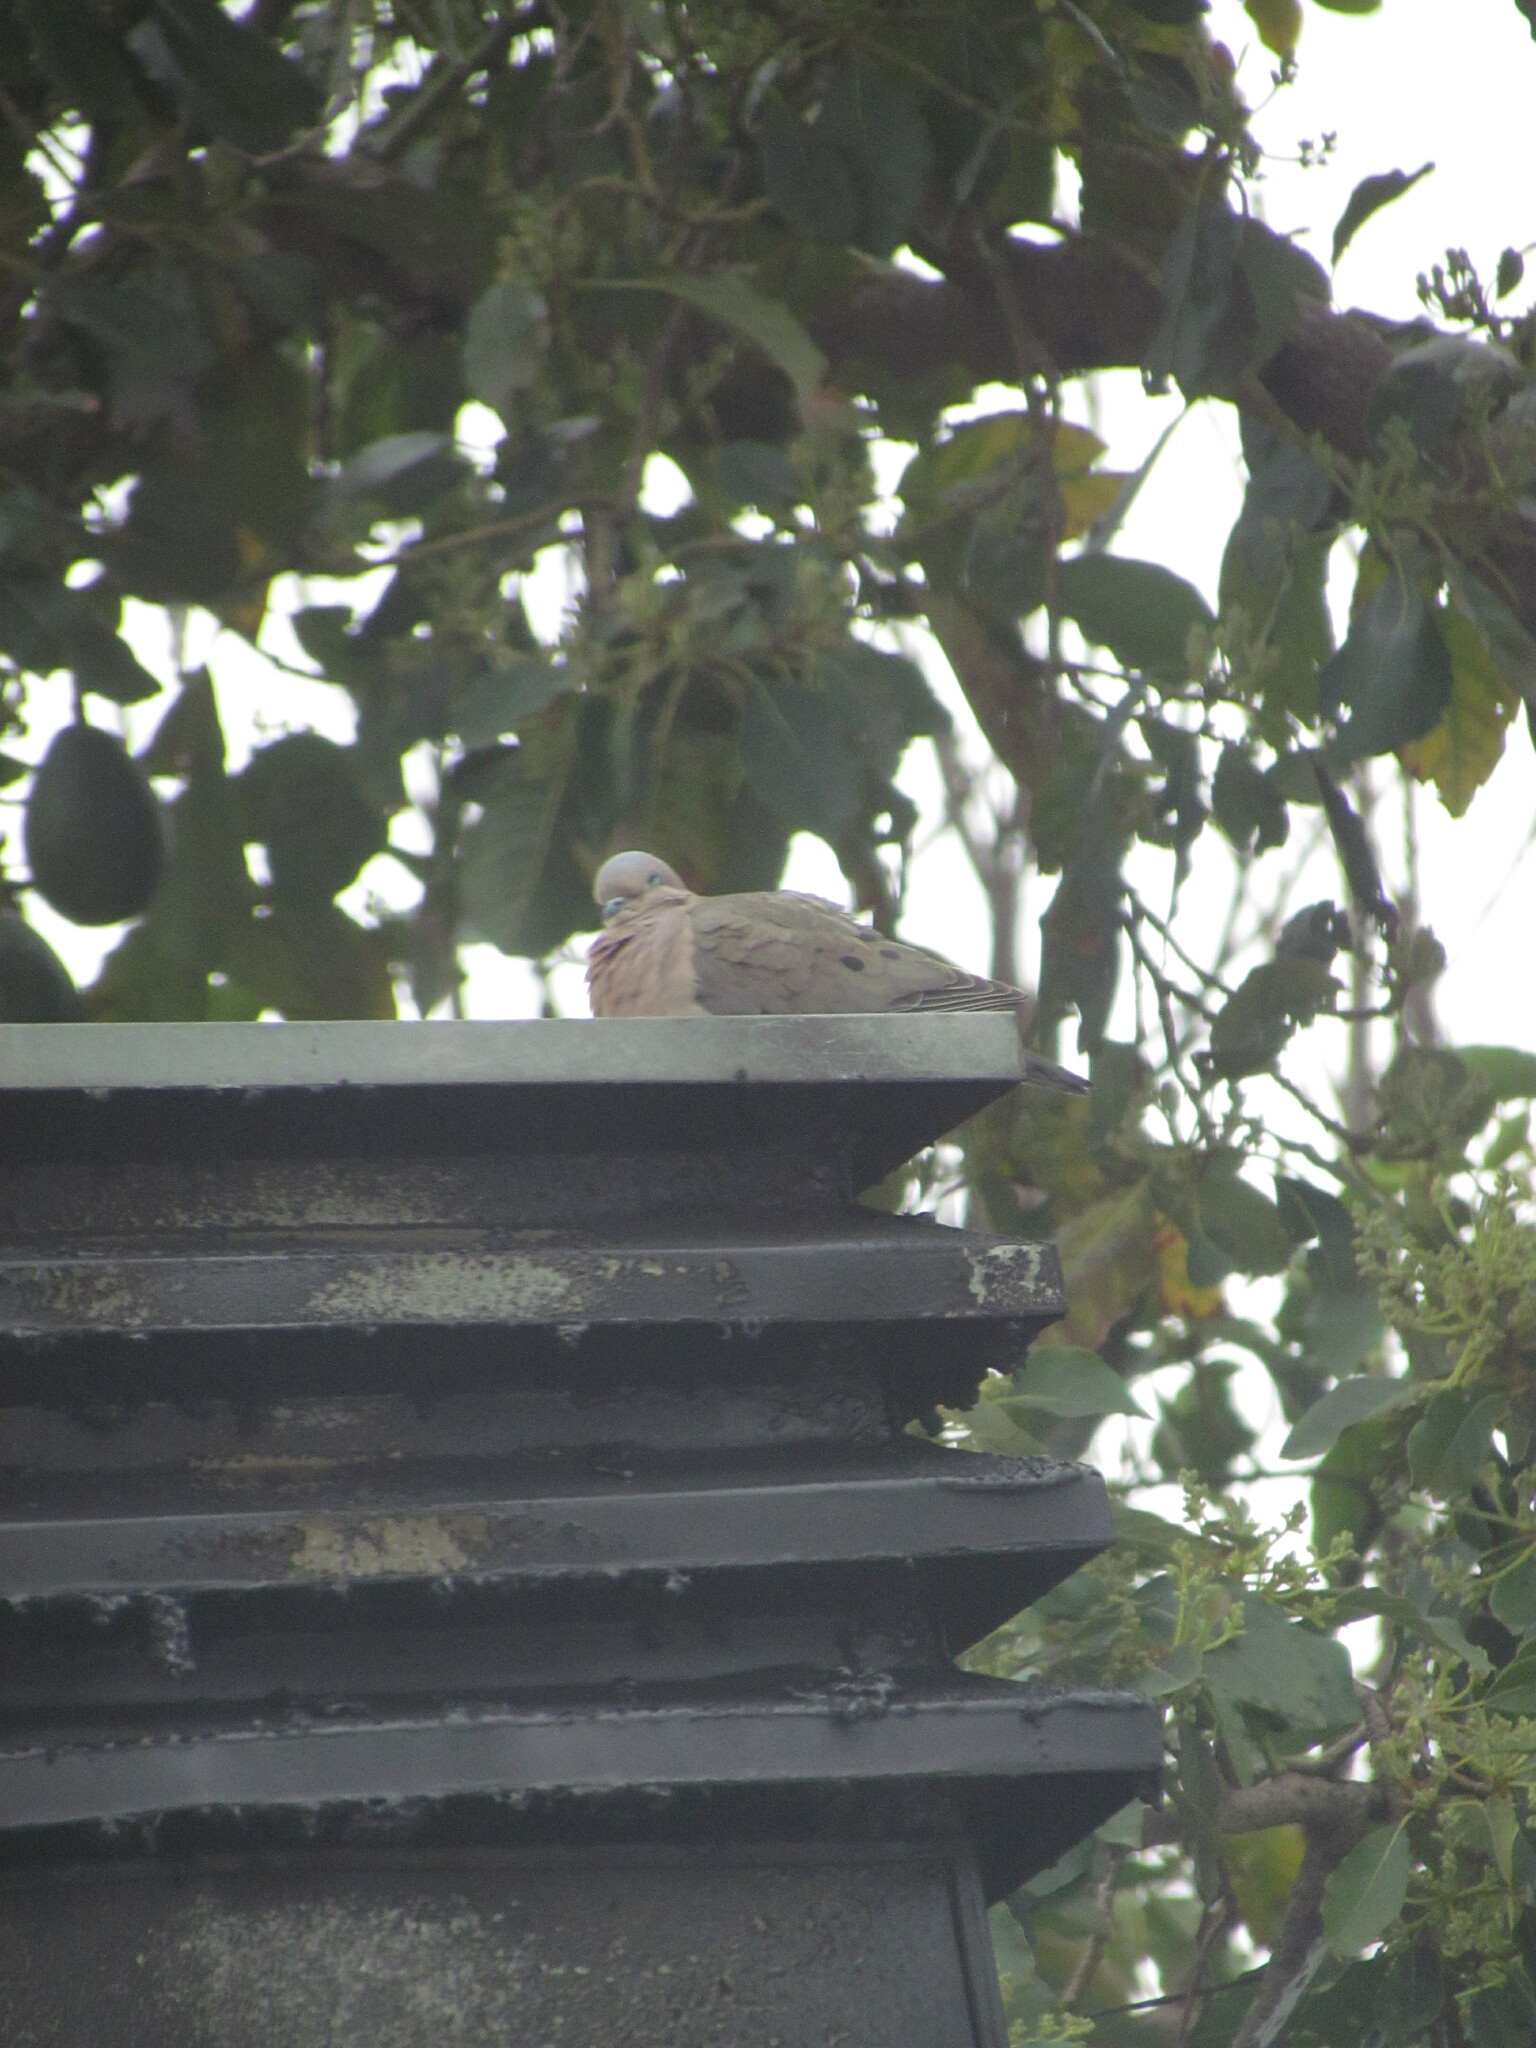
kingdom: Animalia
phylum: Chordata
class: Aves
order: Columbiformes
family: Columbidae
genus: Zenaida
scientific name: Zenaida auriculata
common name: Eared dove
